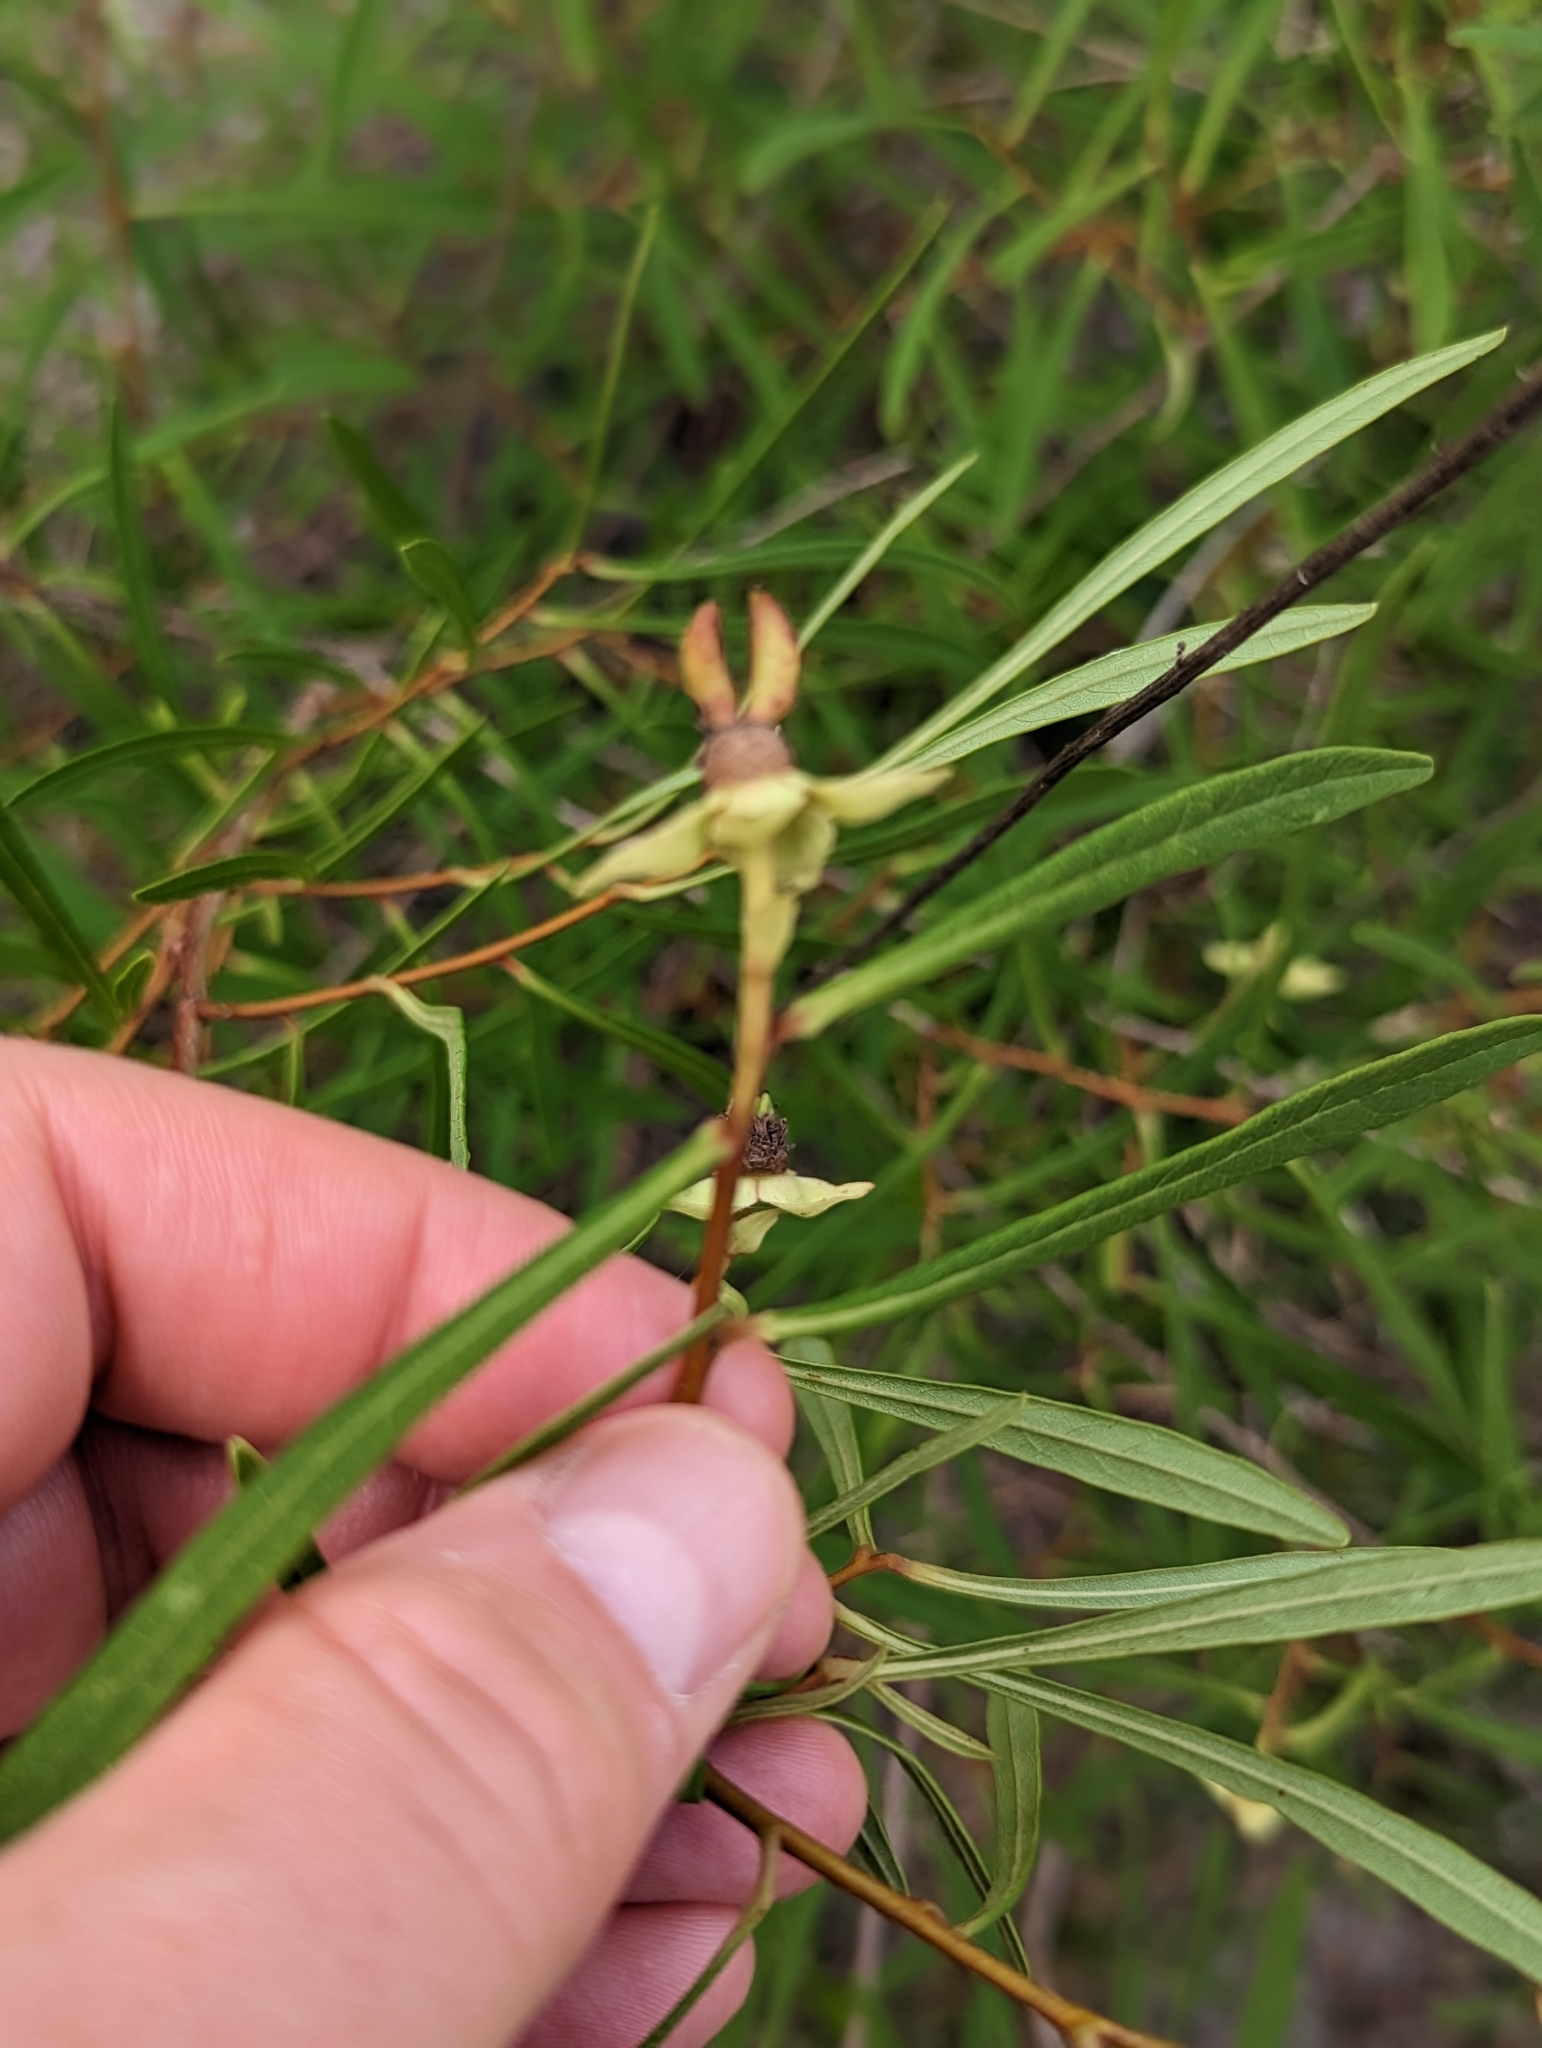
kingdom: Plantae
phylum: Tracheophyta
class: Magnoliopsida
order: Magnoliales
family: Annonaceae
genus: Asimina
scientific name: Asimina longifolia
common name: Polecatbush
